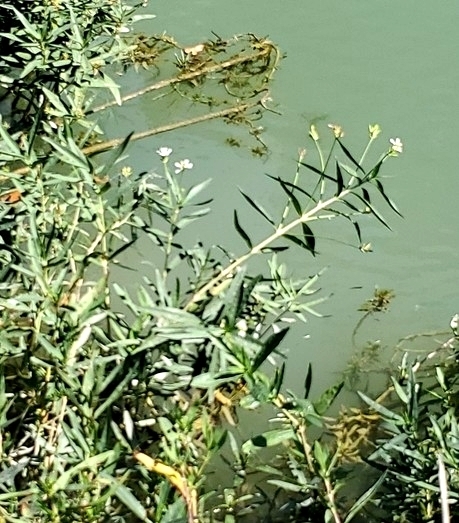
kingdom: Plantae
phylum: Tracheophyta
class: Magnoliopsida
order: Lamiales
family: Acanthaceae
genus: Dianthera
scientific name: Dianthera americana
